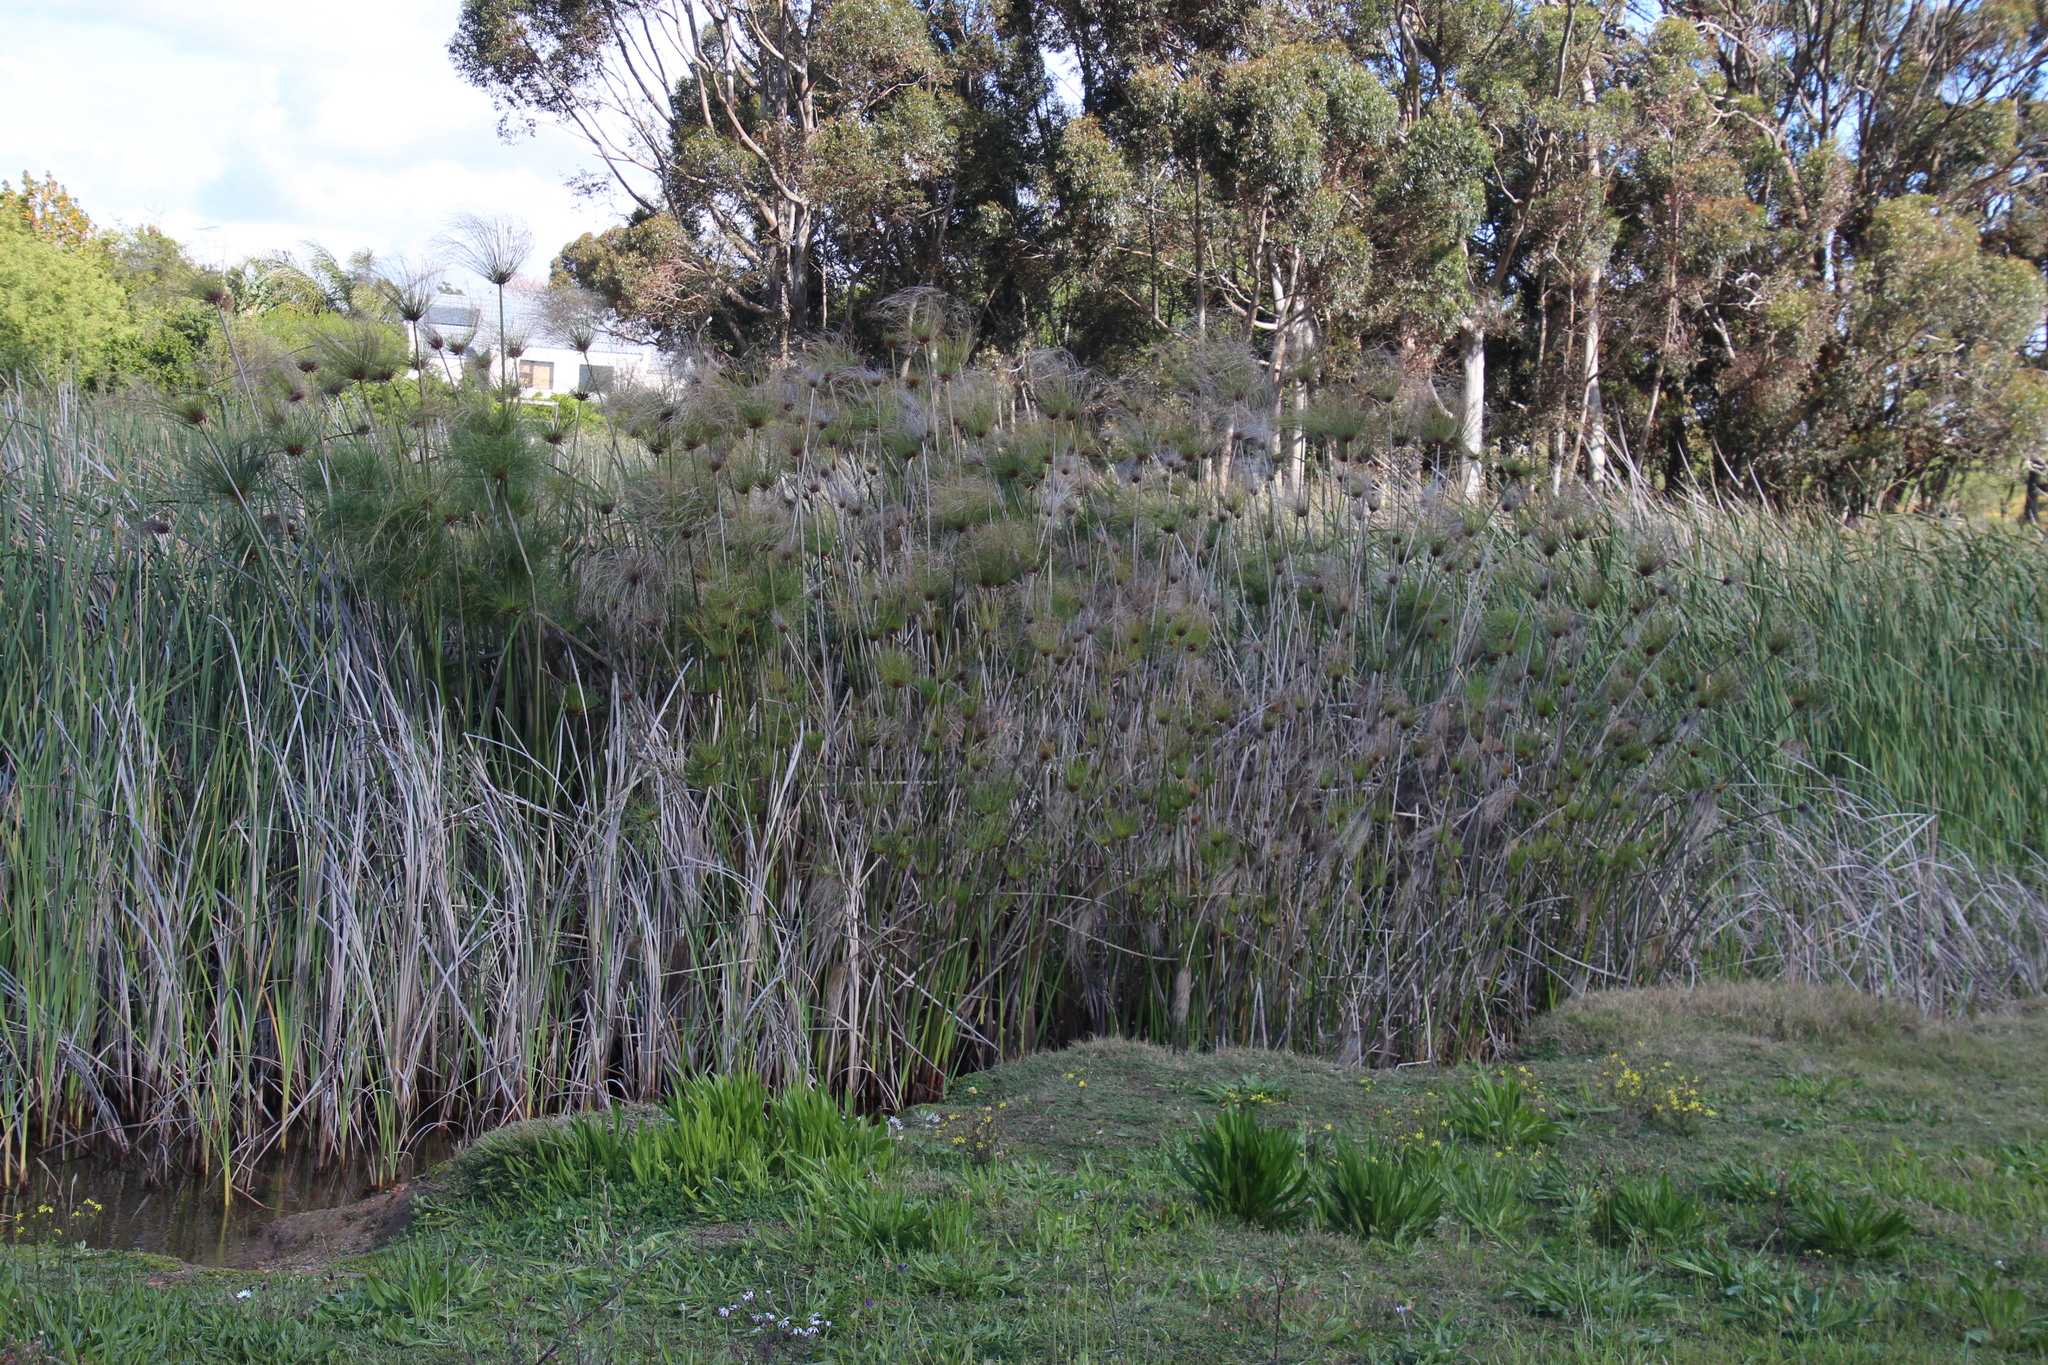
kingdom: Plantae
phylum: Tracheophyta
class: Liliopsida
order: Poales
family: Cyperaceae
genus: Cyperus
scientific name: Cyperus papyrus
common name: Papyrus
